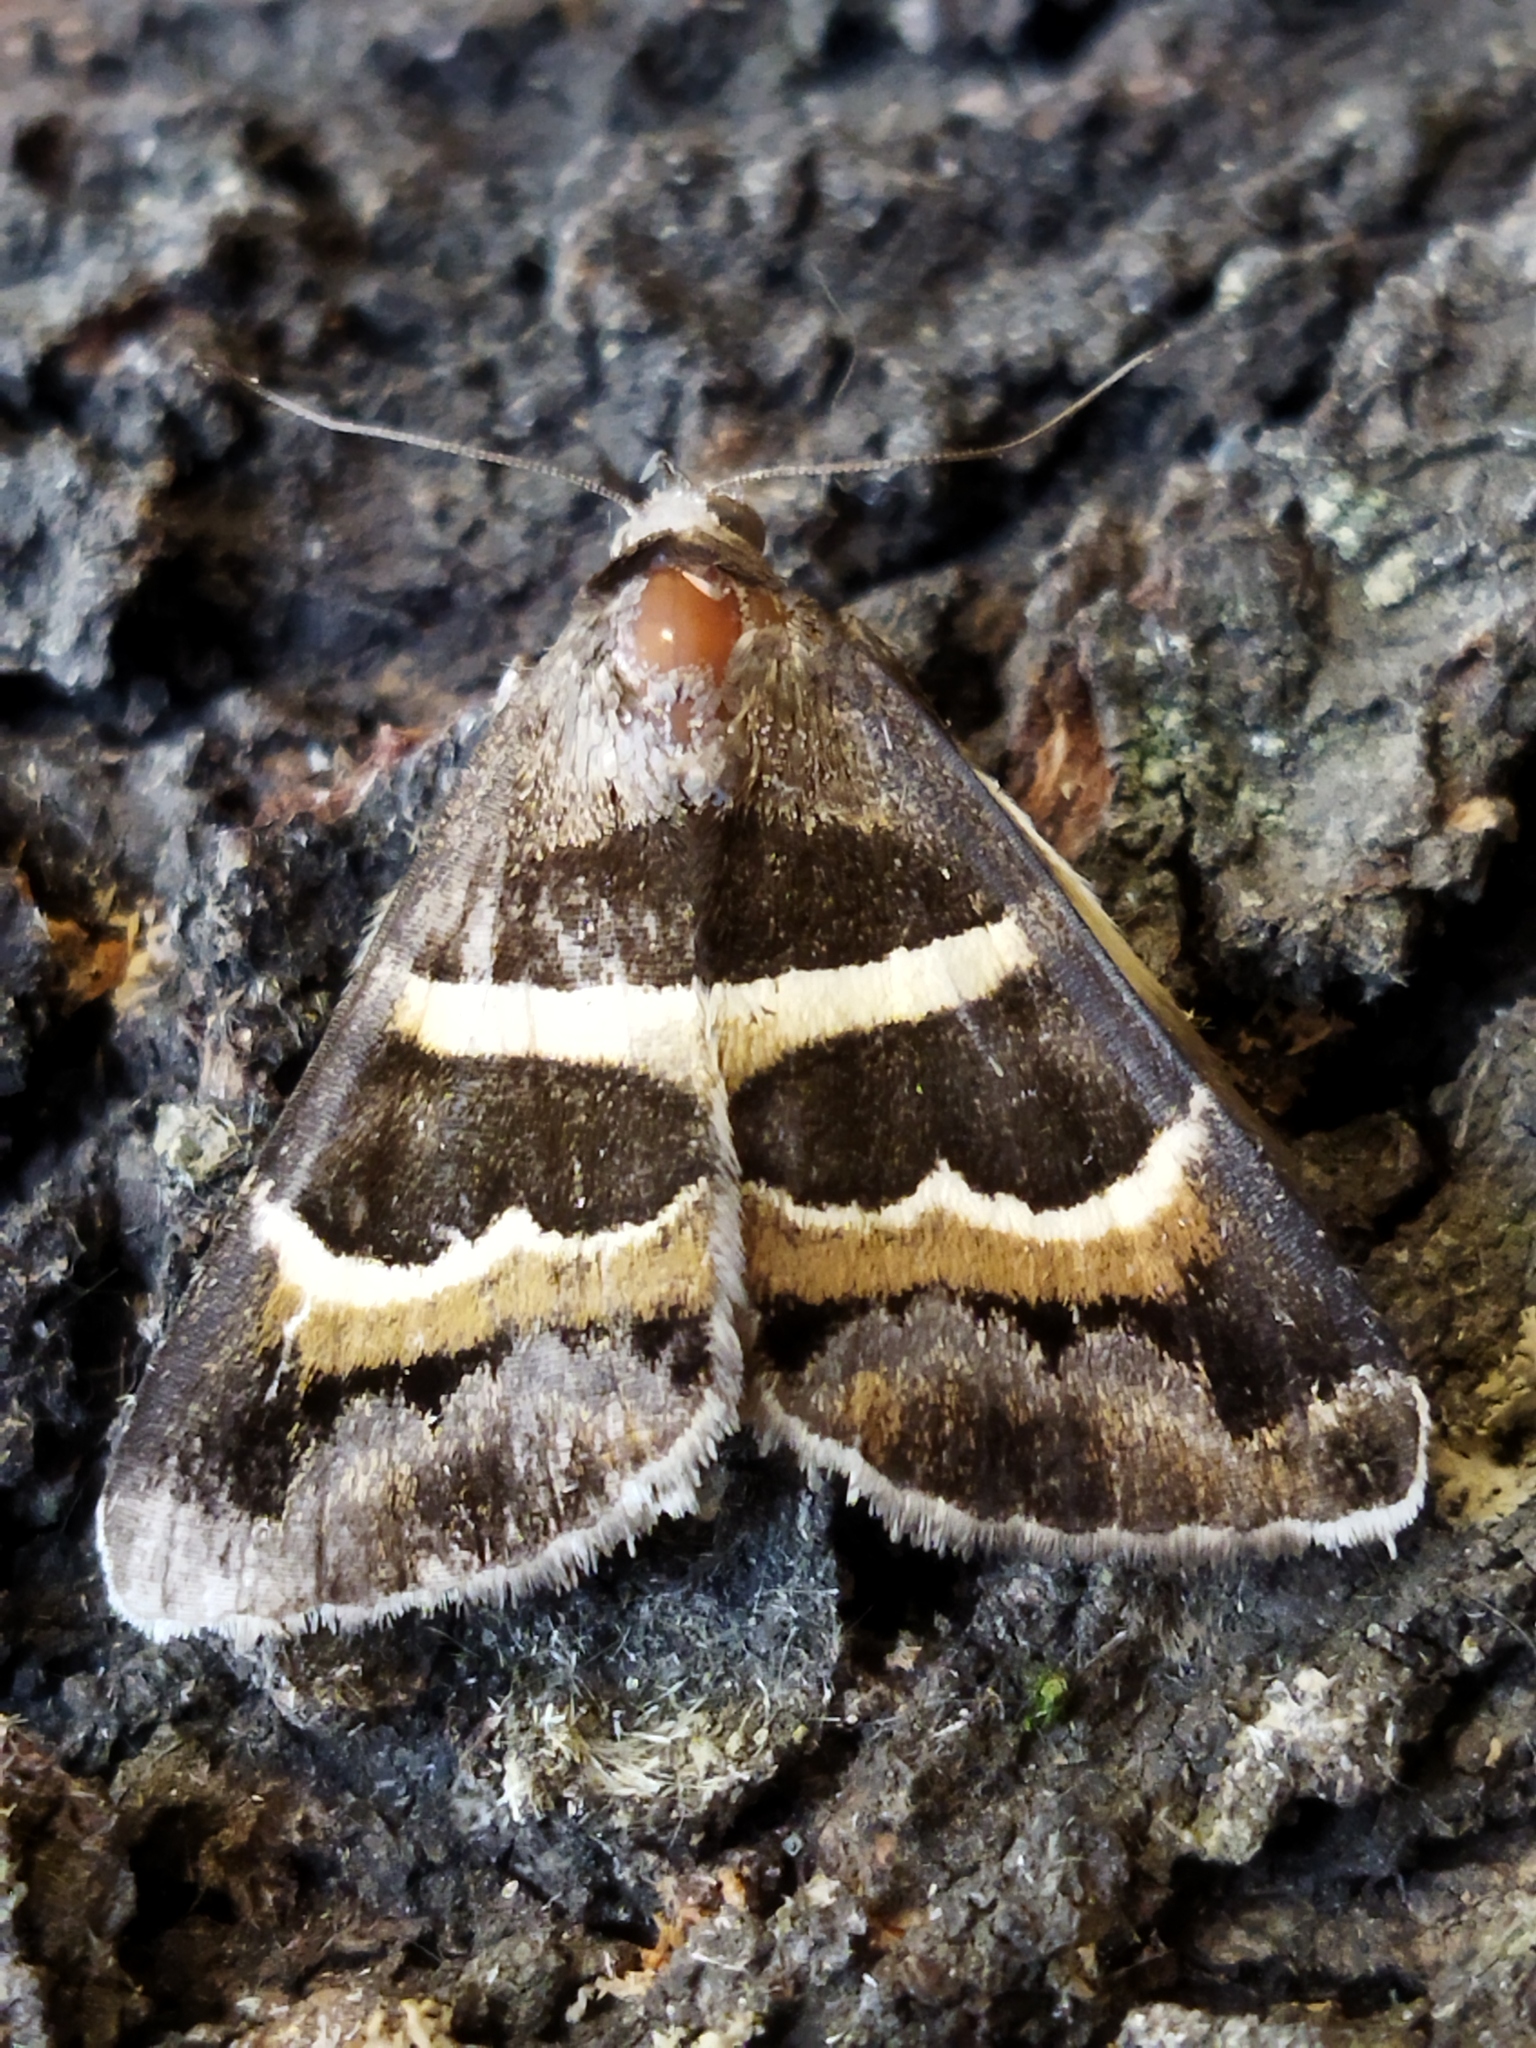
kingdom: Animalia
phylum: Arthropoda
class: Insecta
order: Lepidoptera
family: Erebidae
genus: Grammodes
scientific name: Grammodes stolida
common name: Geometrician
